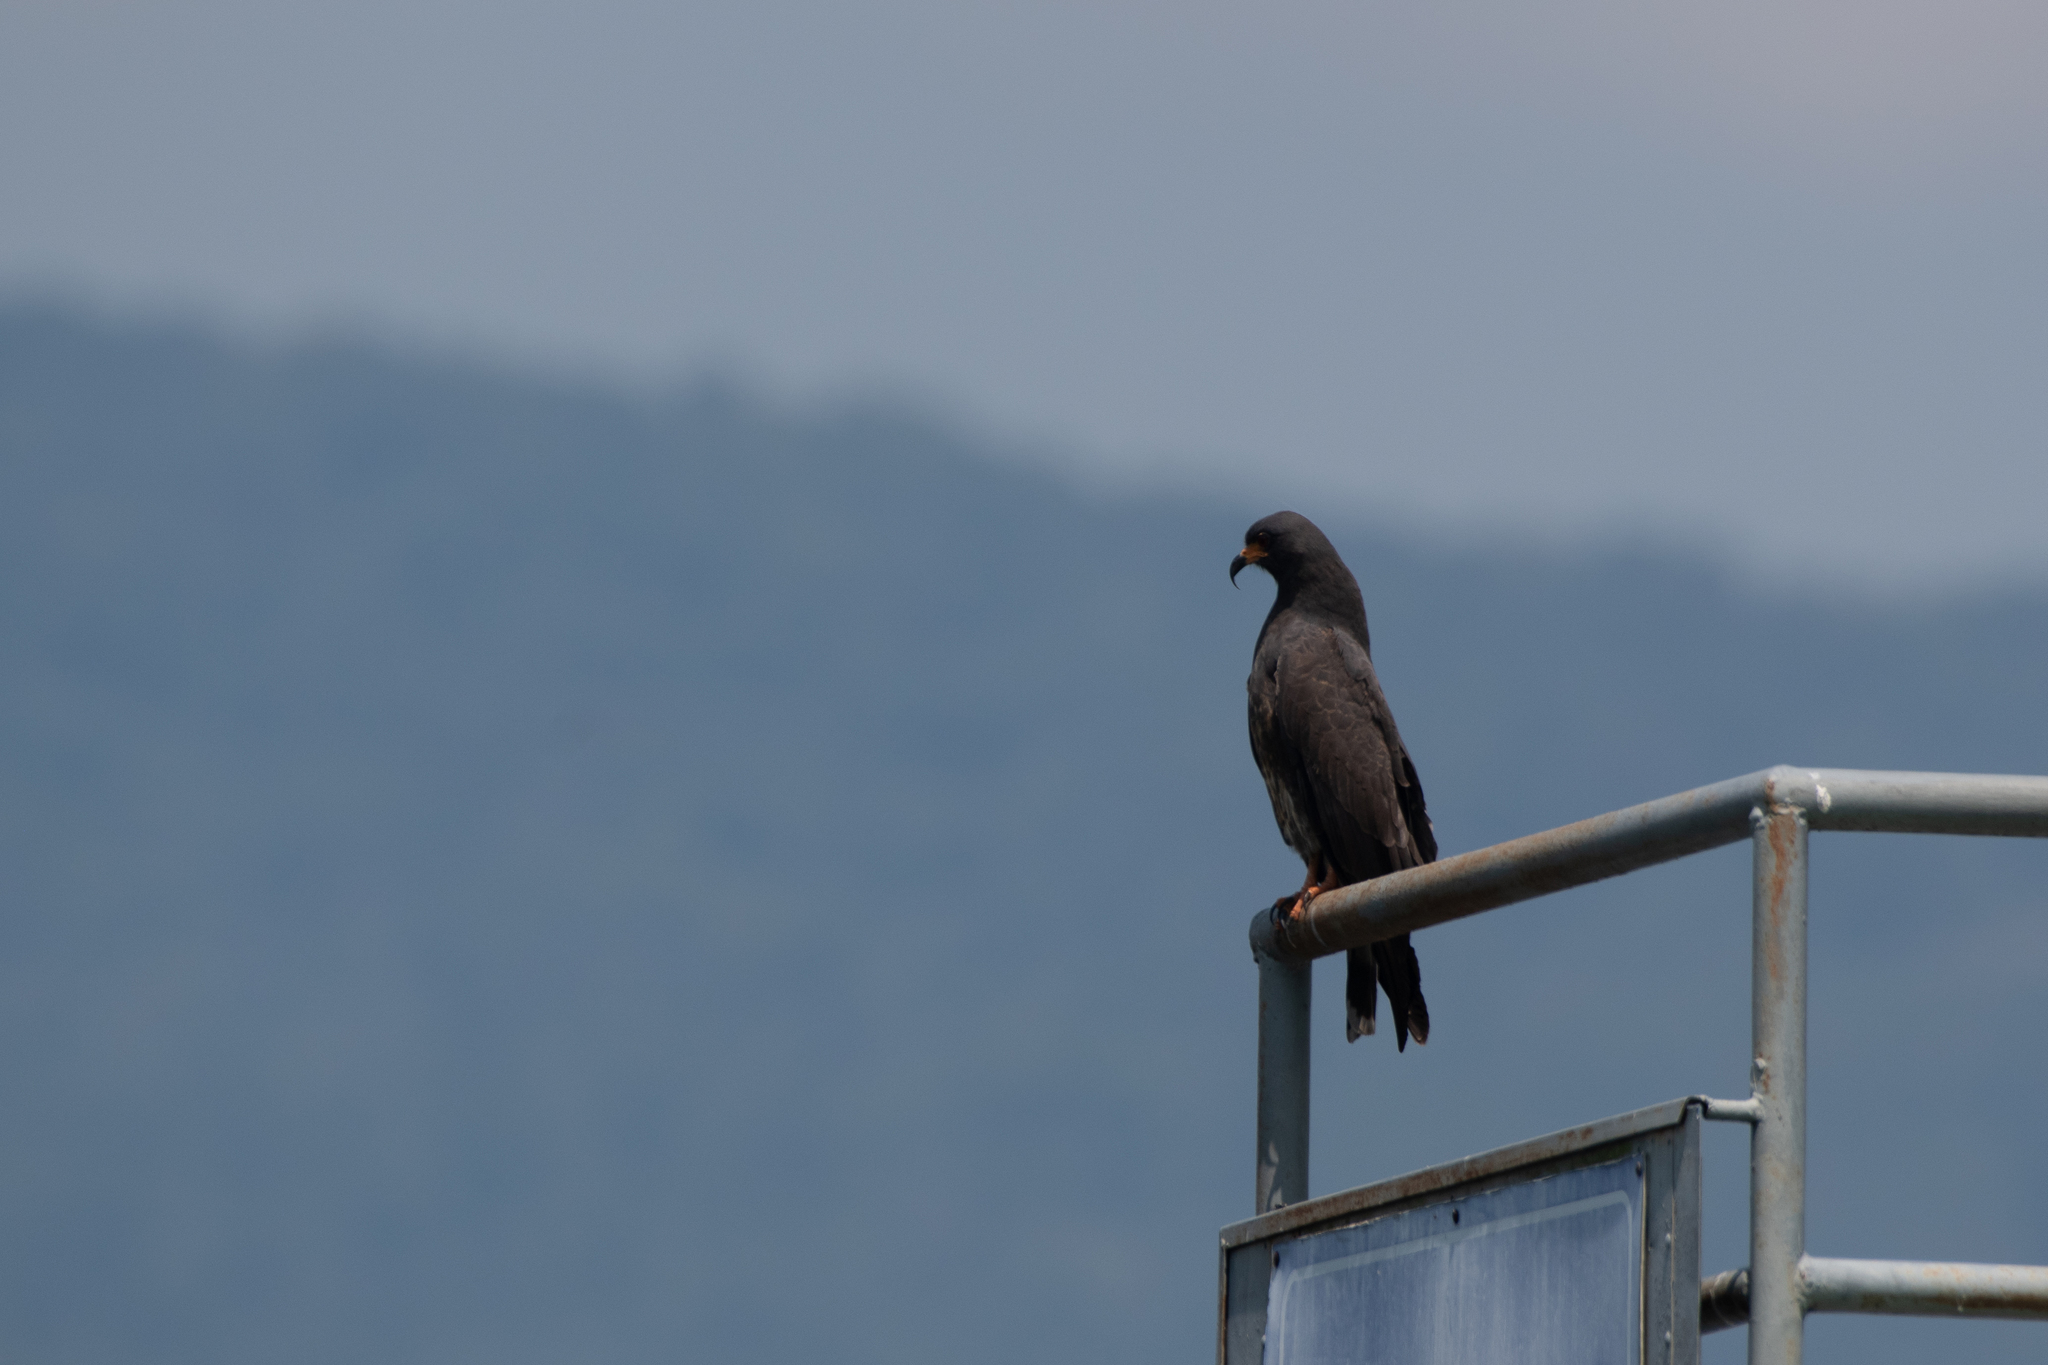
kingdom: Animalia
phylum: Chordata
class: Aves
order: Accipitriformes
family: Accipitridae
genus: Rostrhamus
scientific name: Rostrhamus sociabilis
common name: Snail kite
